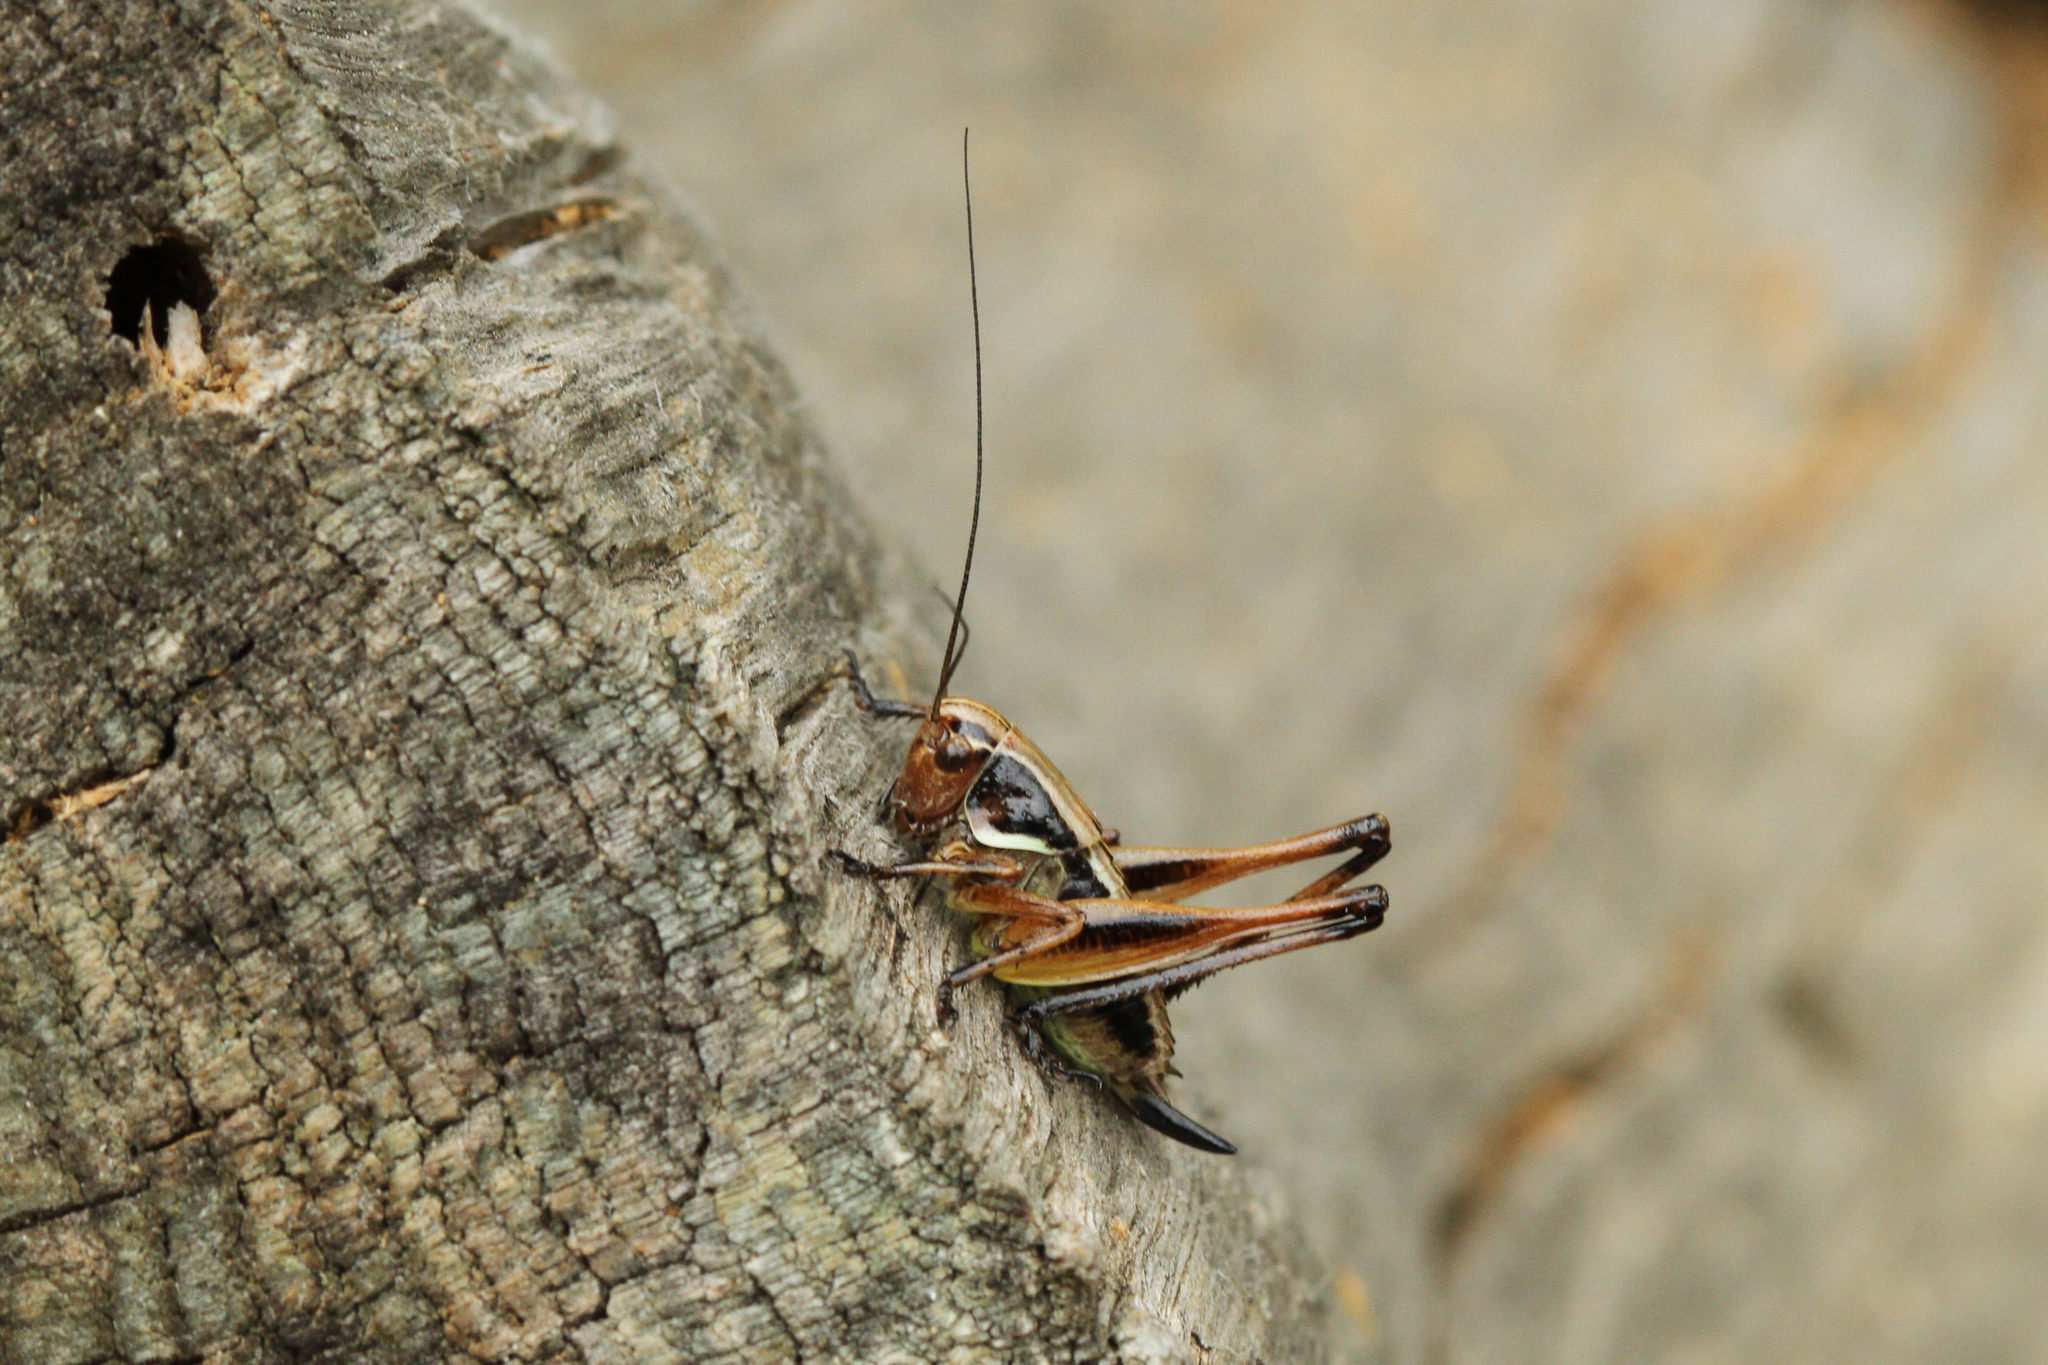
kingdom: Animalia
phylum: Arthropoda
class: Insecta
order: Orthoptera
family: Tettigoniidae
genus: Metrioptera
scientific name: Metrioptera saussuriana
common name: Purple meadow bush-cricket
